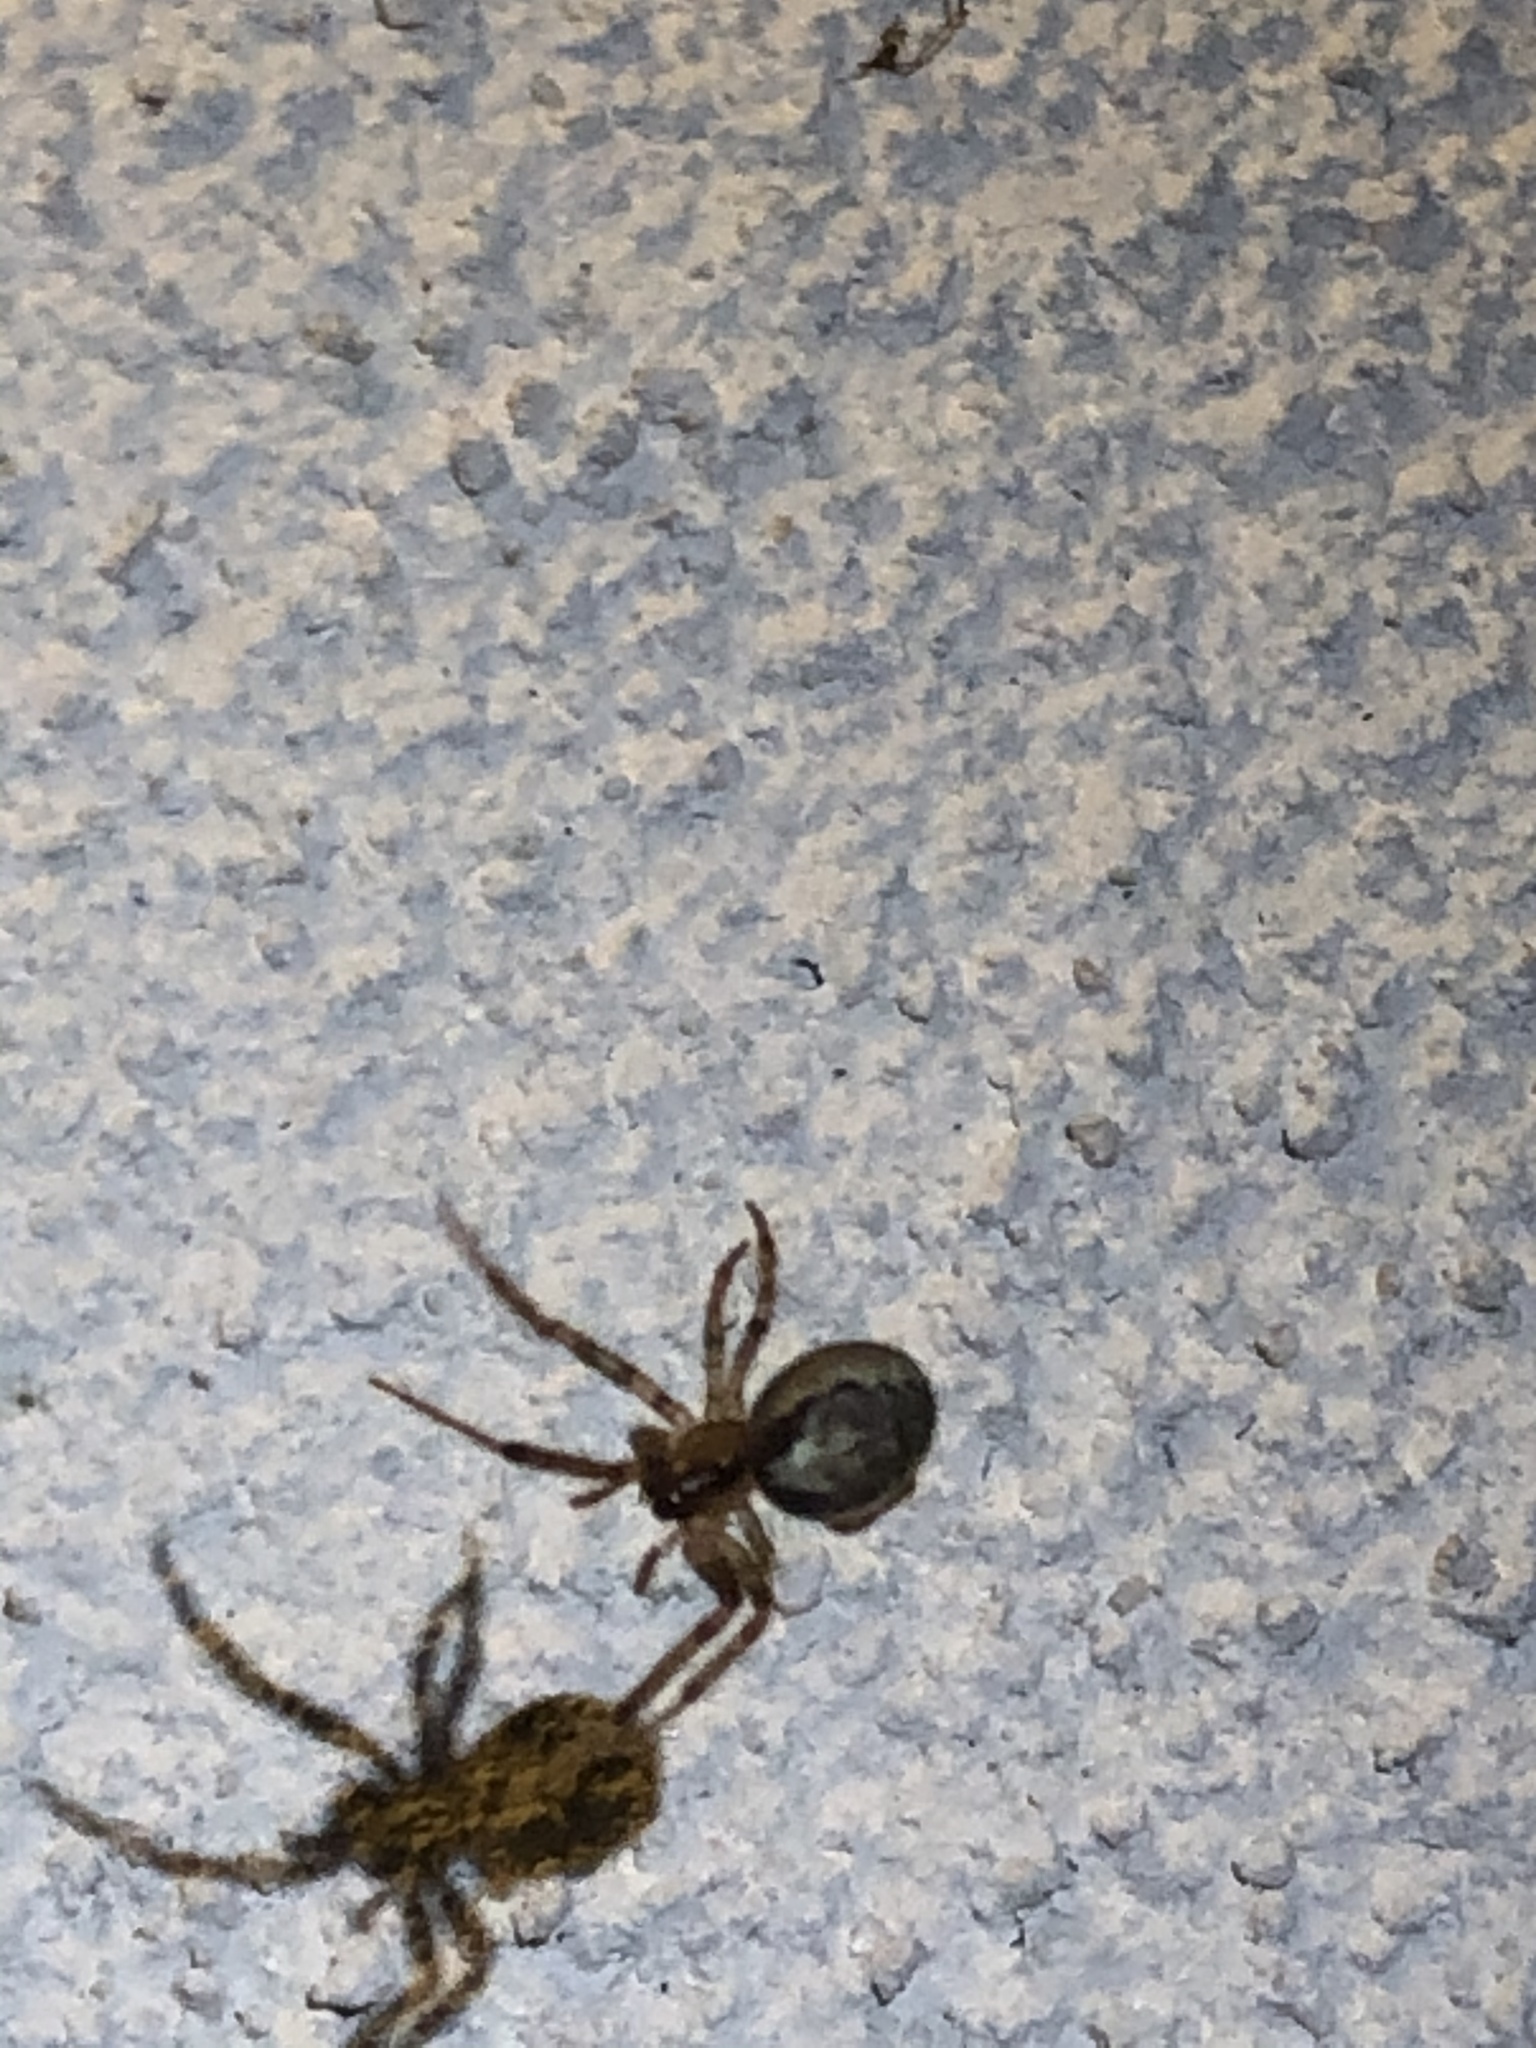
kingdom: Animalia
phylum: Arthropoda
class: Arachnida
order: Araneae
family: Araneidae
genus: Zygiella
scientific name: Zygiella x-notata
